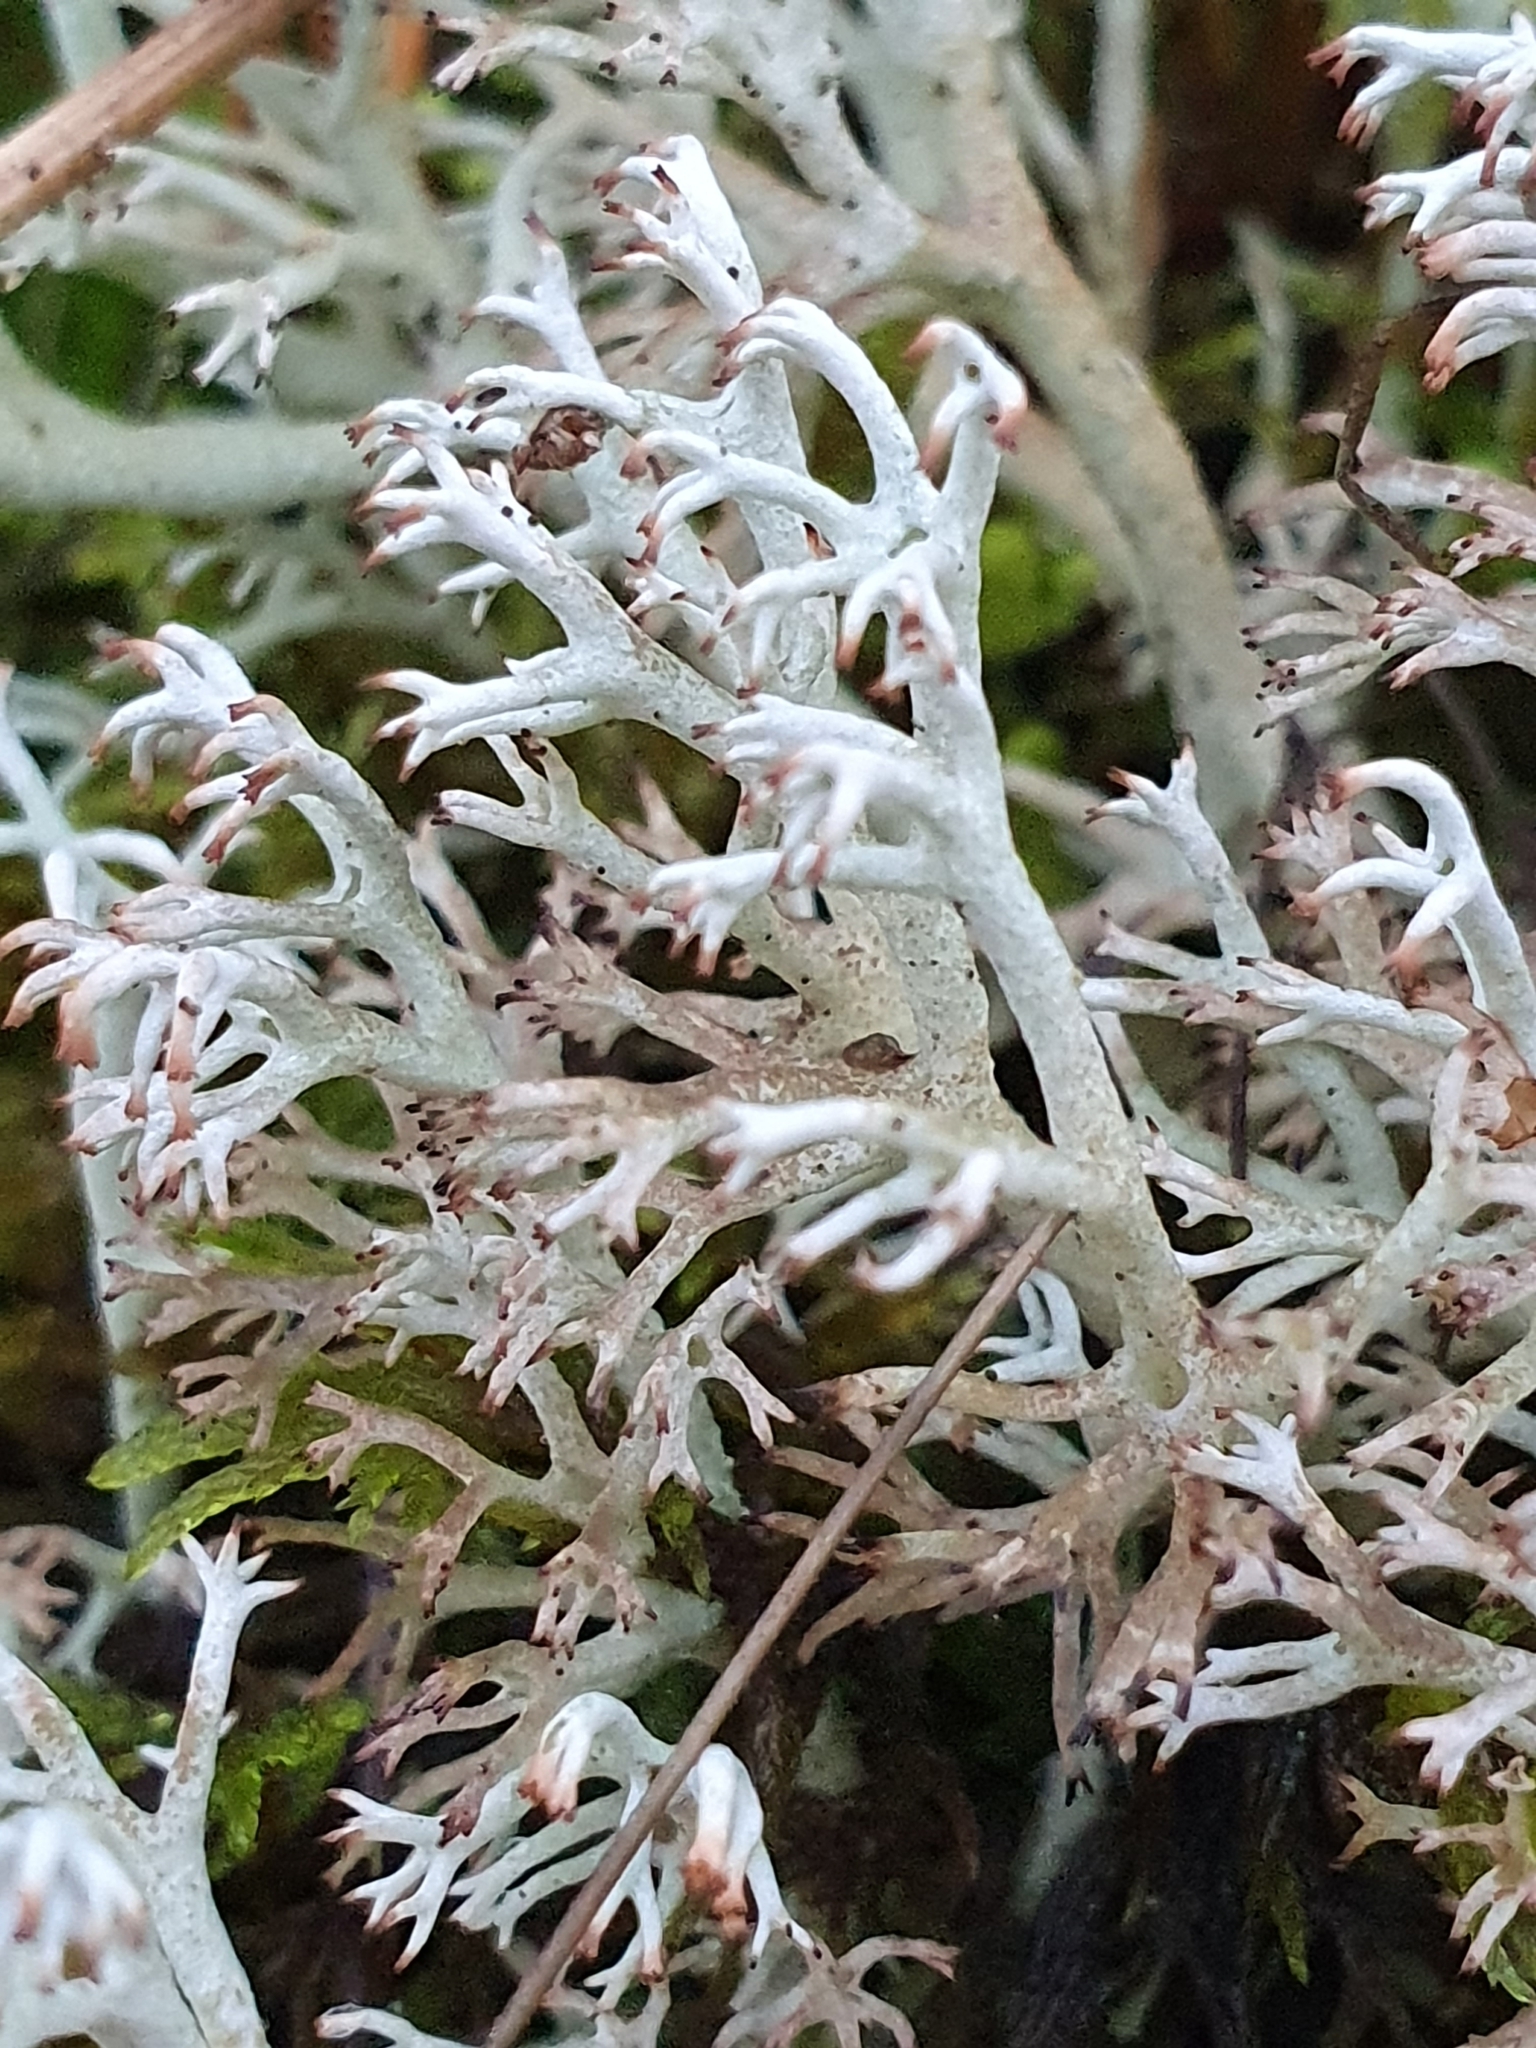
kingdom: Fungi
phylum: Ascomycota
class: Lecanoromycetes
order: Lecanorales
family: Cladoniaceae
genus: Cladonia
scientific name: Cladonia rangiferina
